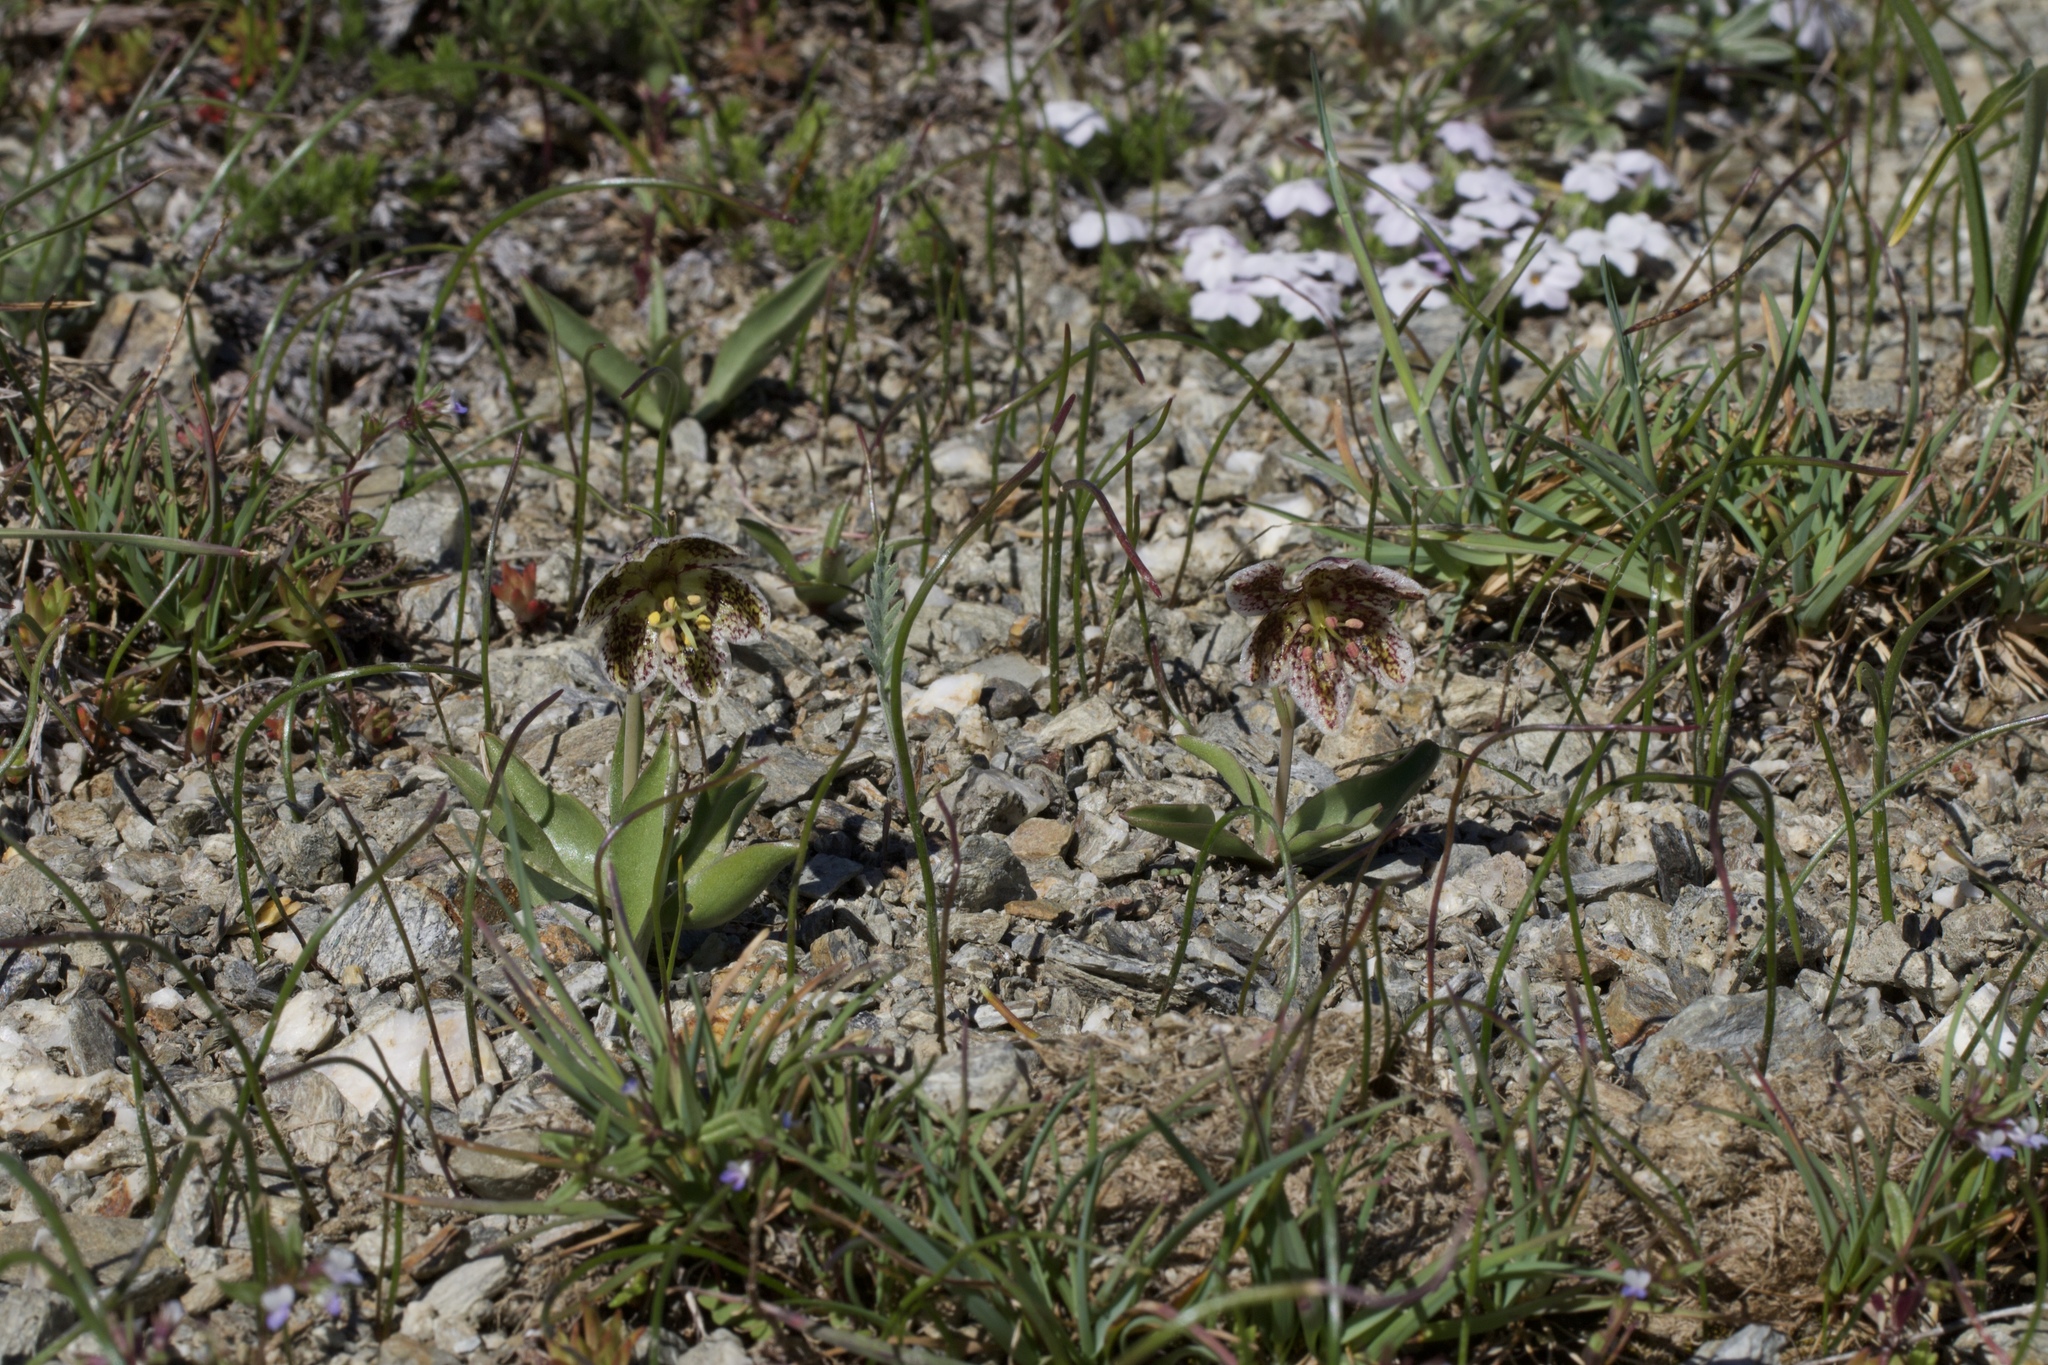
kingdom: Plantae
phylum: Tracheophyta
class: Liliopsida
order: Liliales
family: Liliaceae
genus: Fritillaria
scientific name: Fritillaria purdyi
